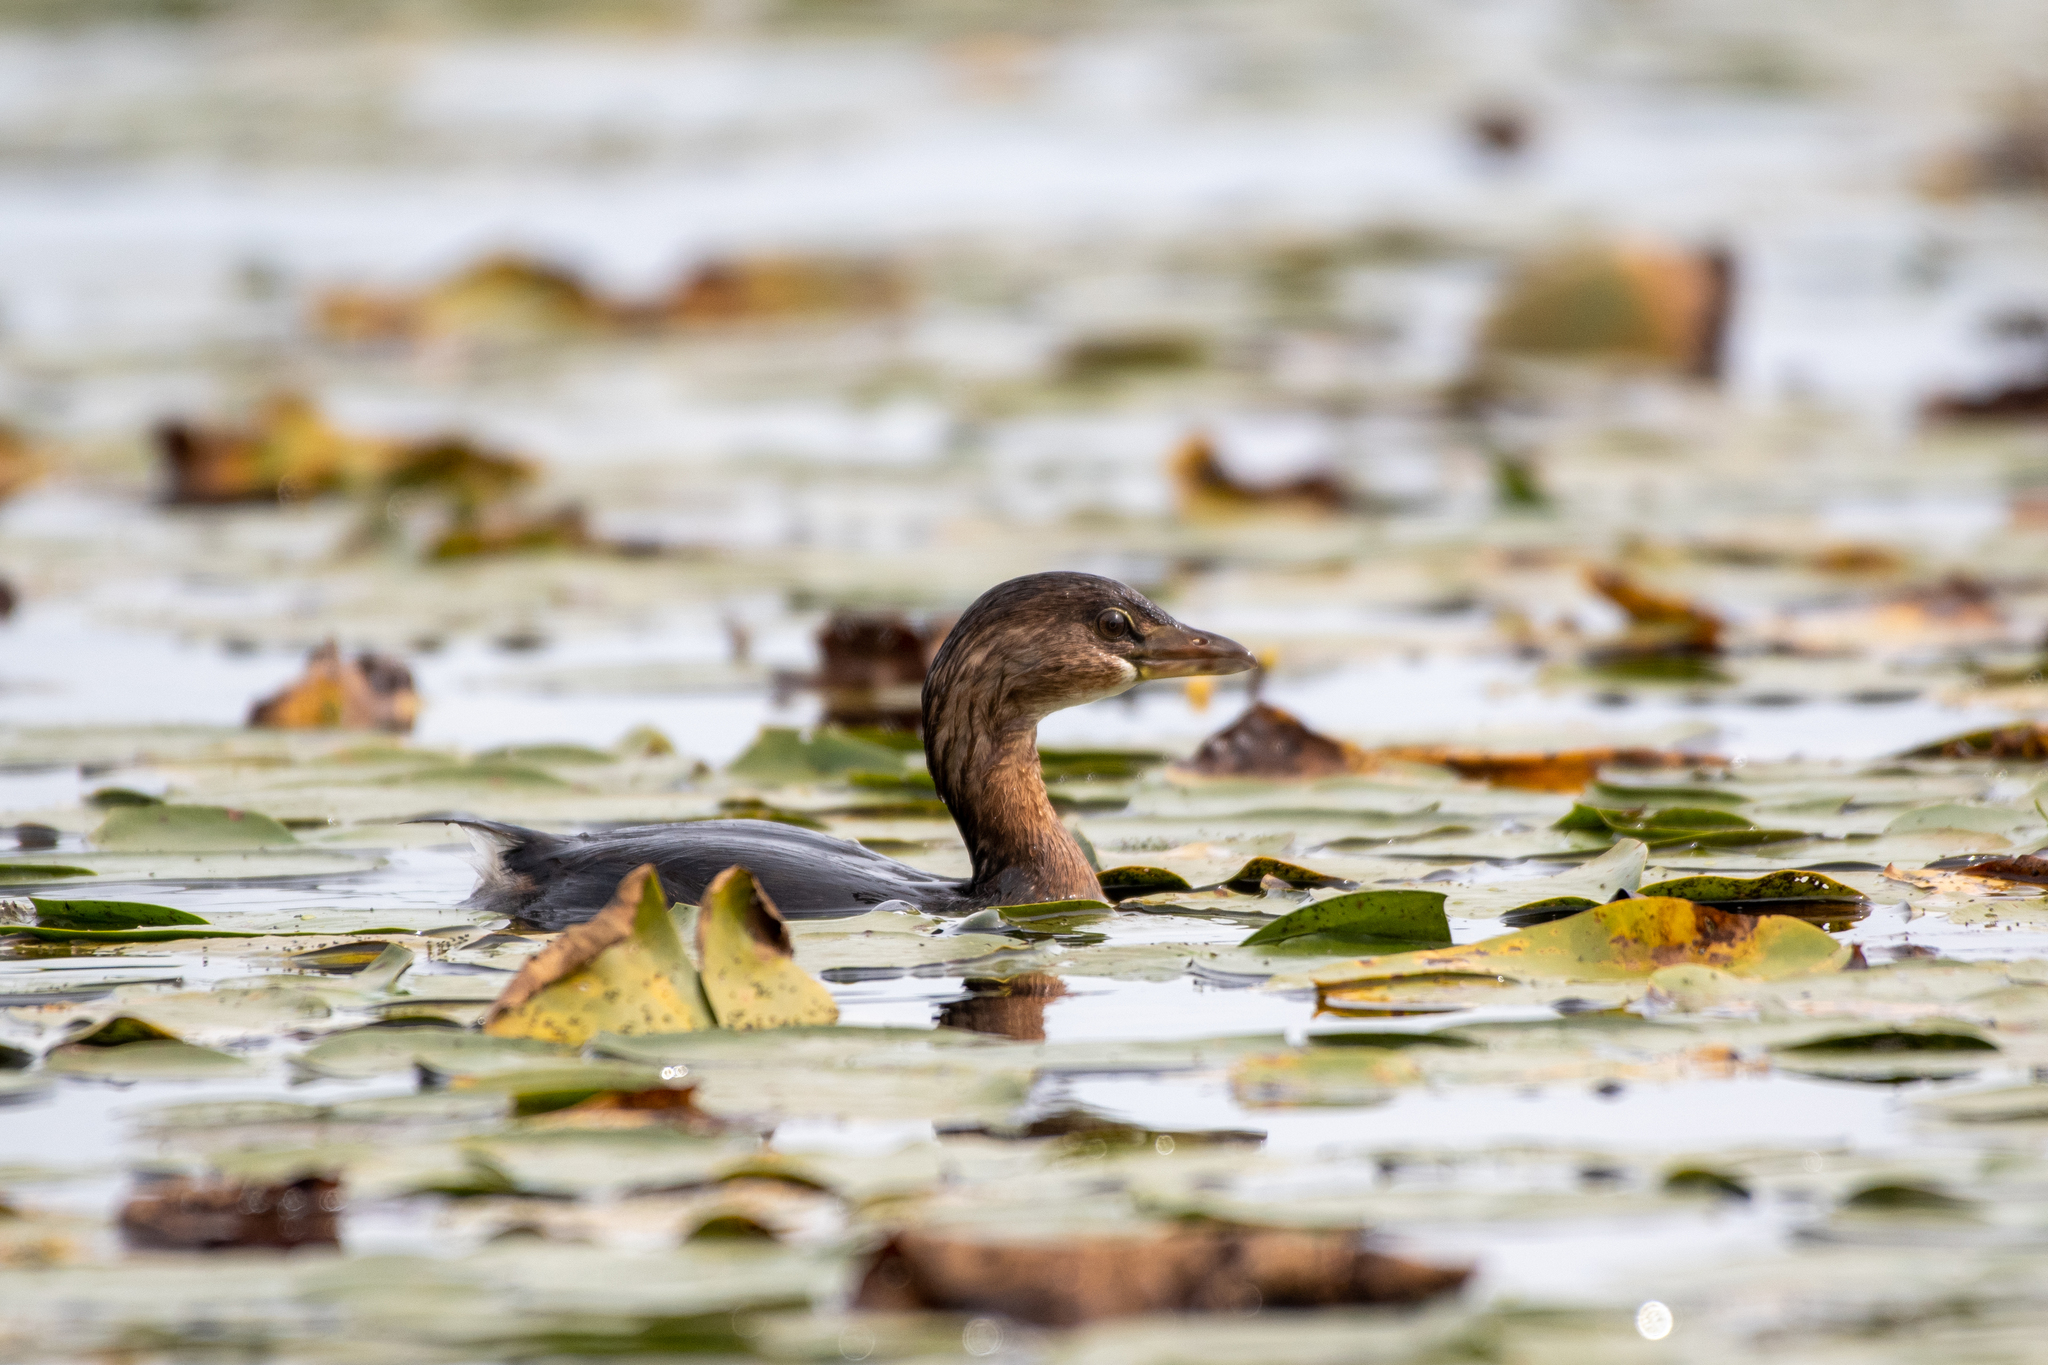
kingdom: Animalia
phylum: Chordata
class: Aves
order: Podicipediformes
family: Podicipedidae
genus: Podilymbus
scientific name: Podilymbus podiceps
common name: Pied-billed grebe
